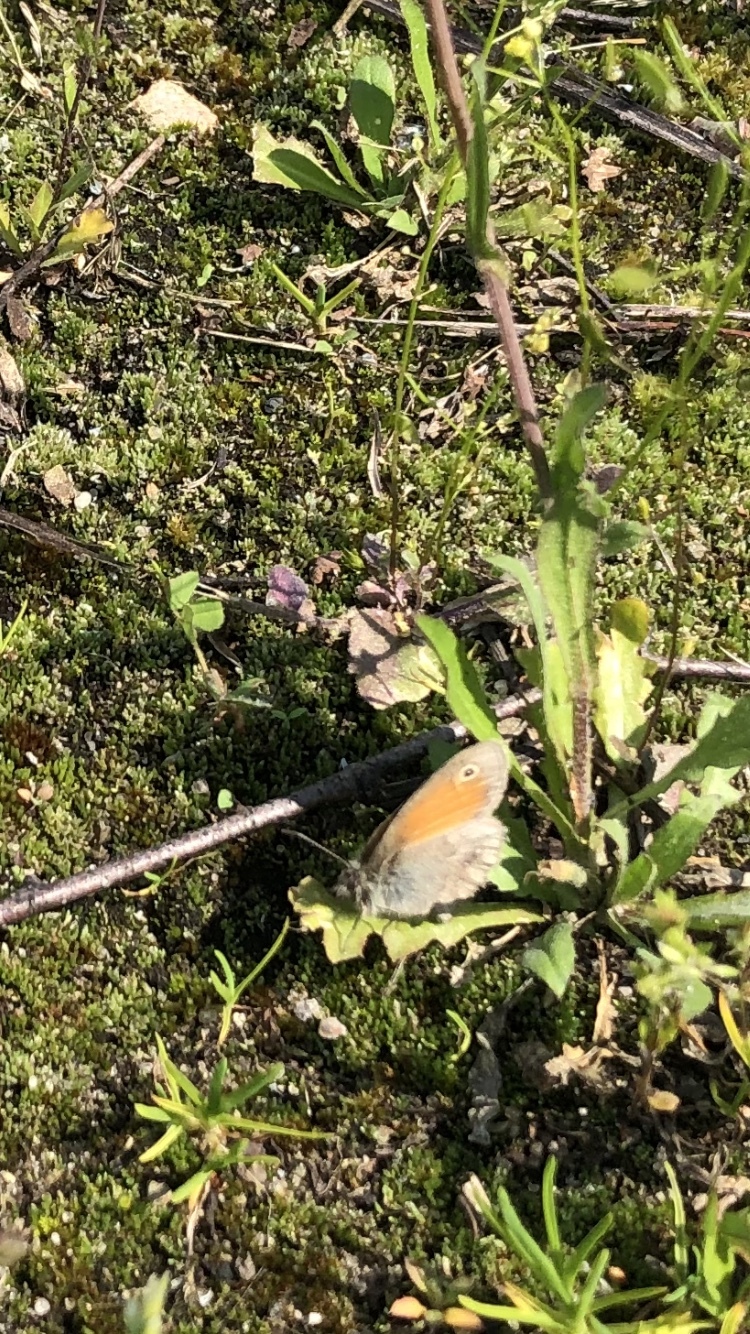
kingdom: Animalia
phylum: Arthropoda
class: Insecta
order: Lepidoptera
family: Nymphalidae
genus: Coenonympha
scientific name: Coenonympha pamphilus
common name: Small heath
